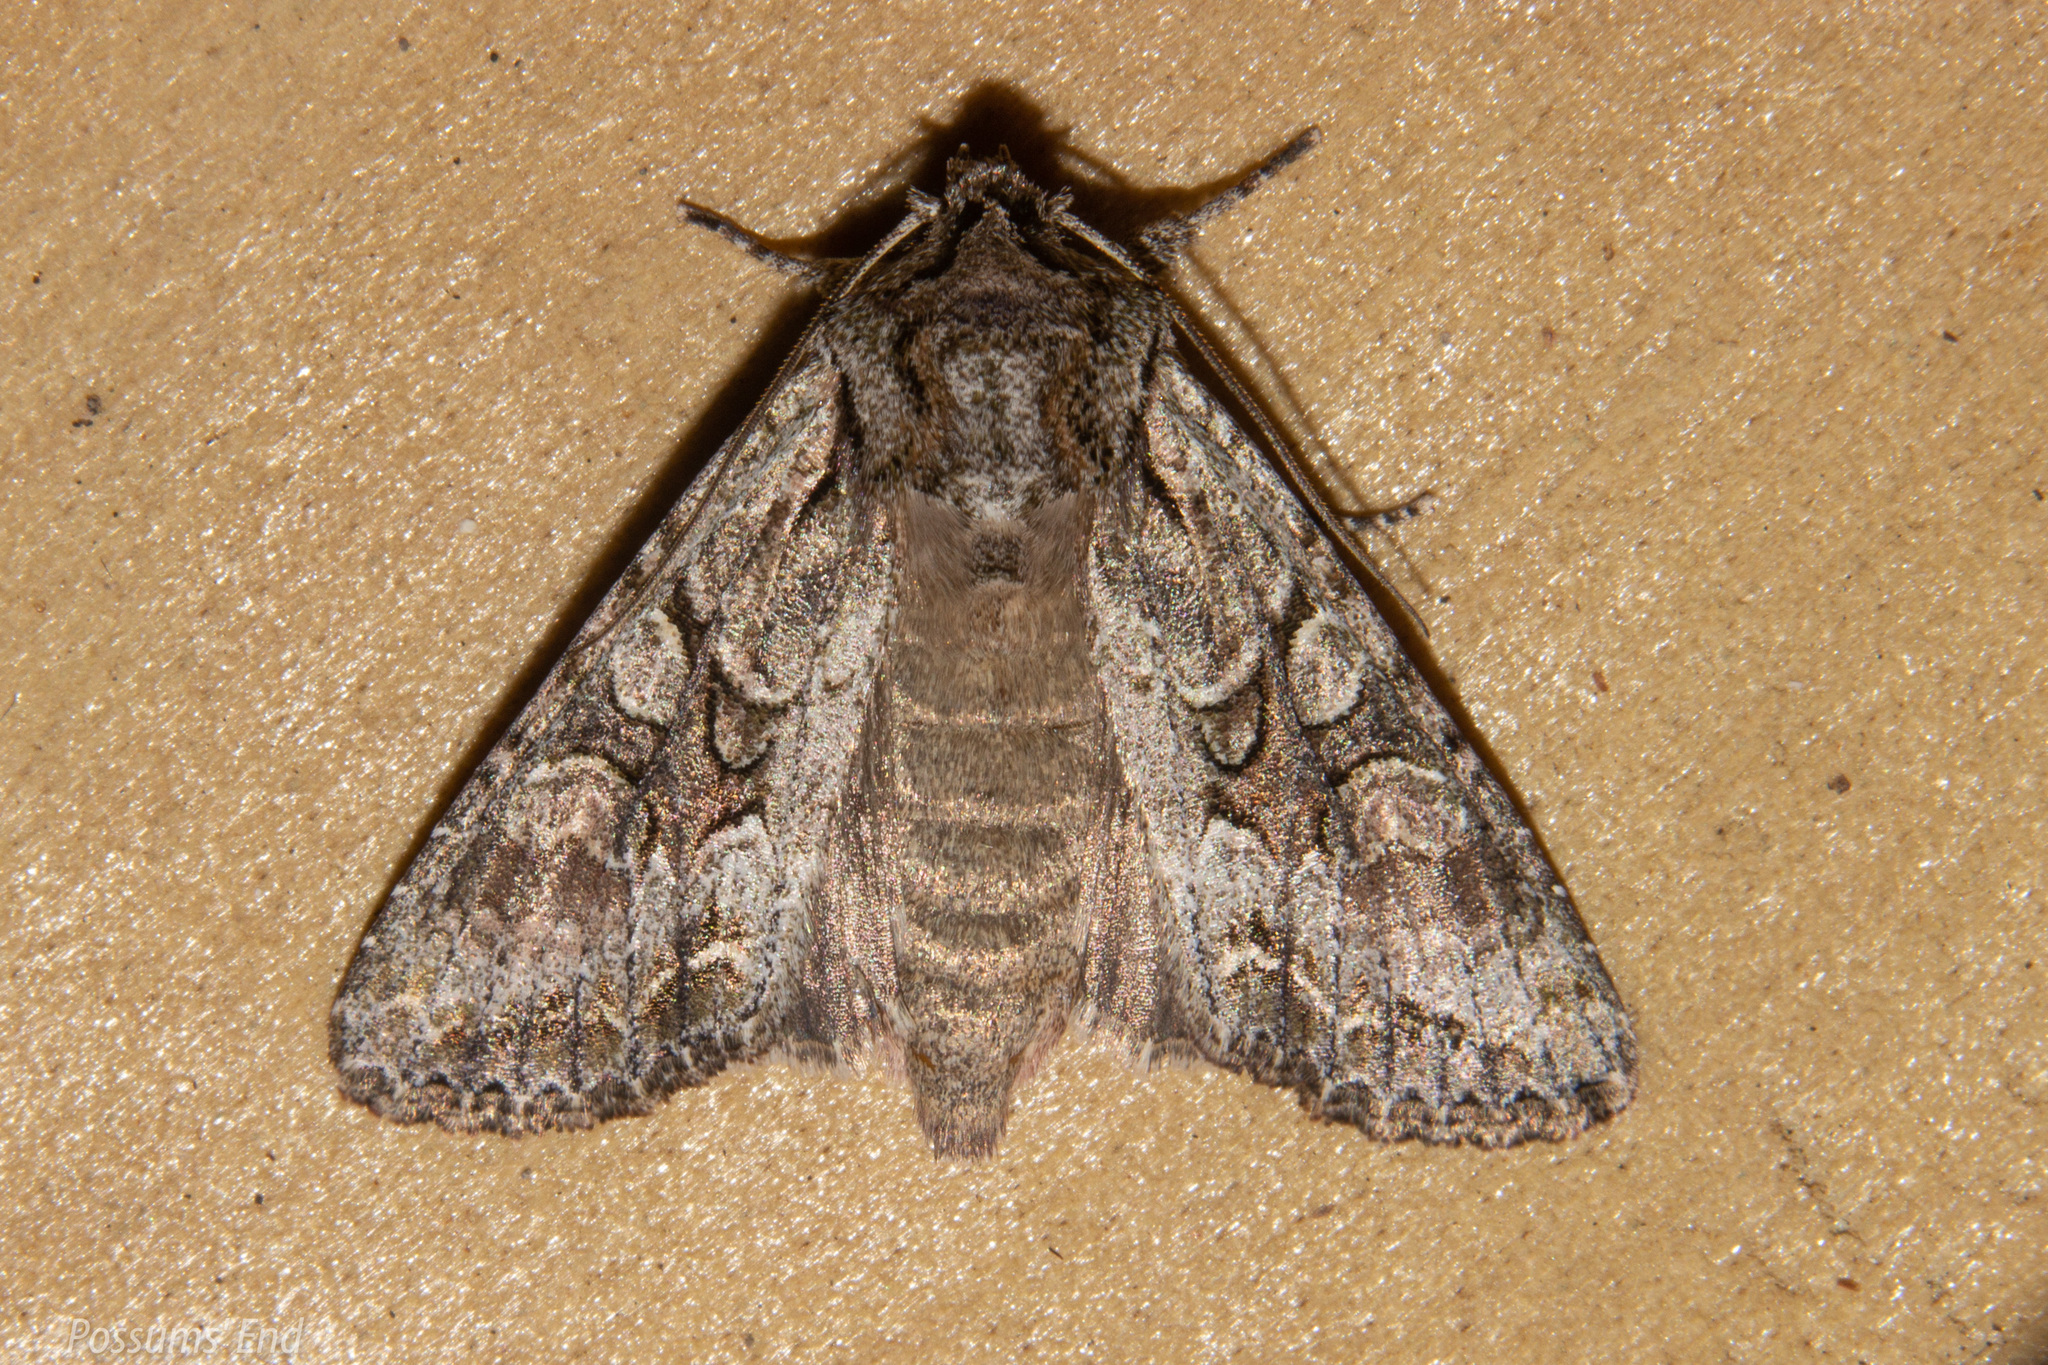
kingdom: Animalia
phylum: Arthropoda
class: Insecta
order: Lepidoptera
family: Noctuidae
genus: Ichneutica
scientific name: Ichneutica mutans
